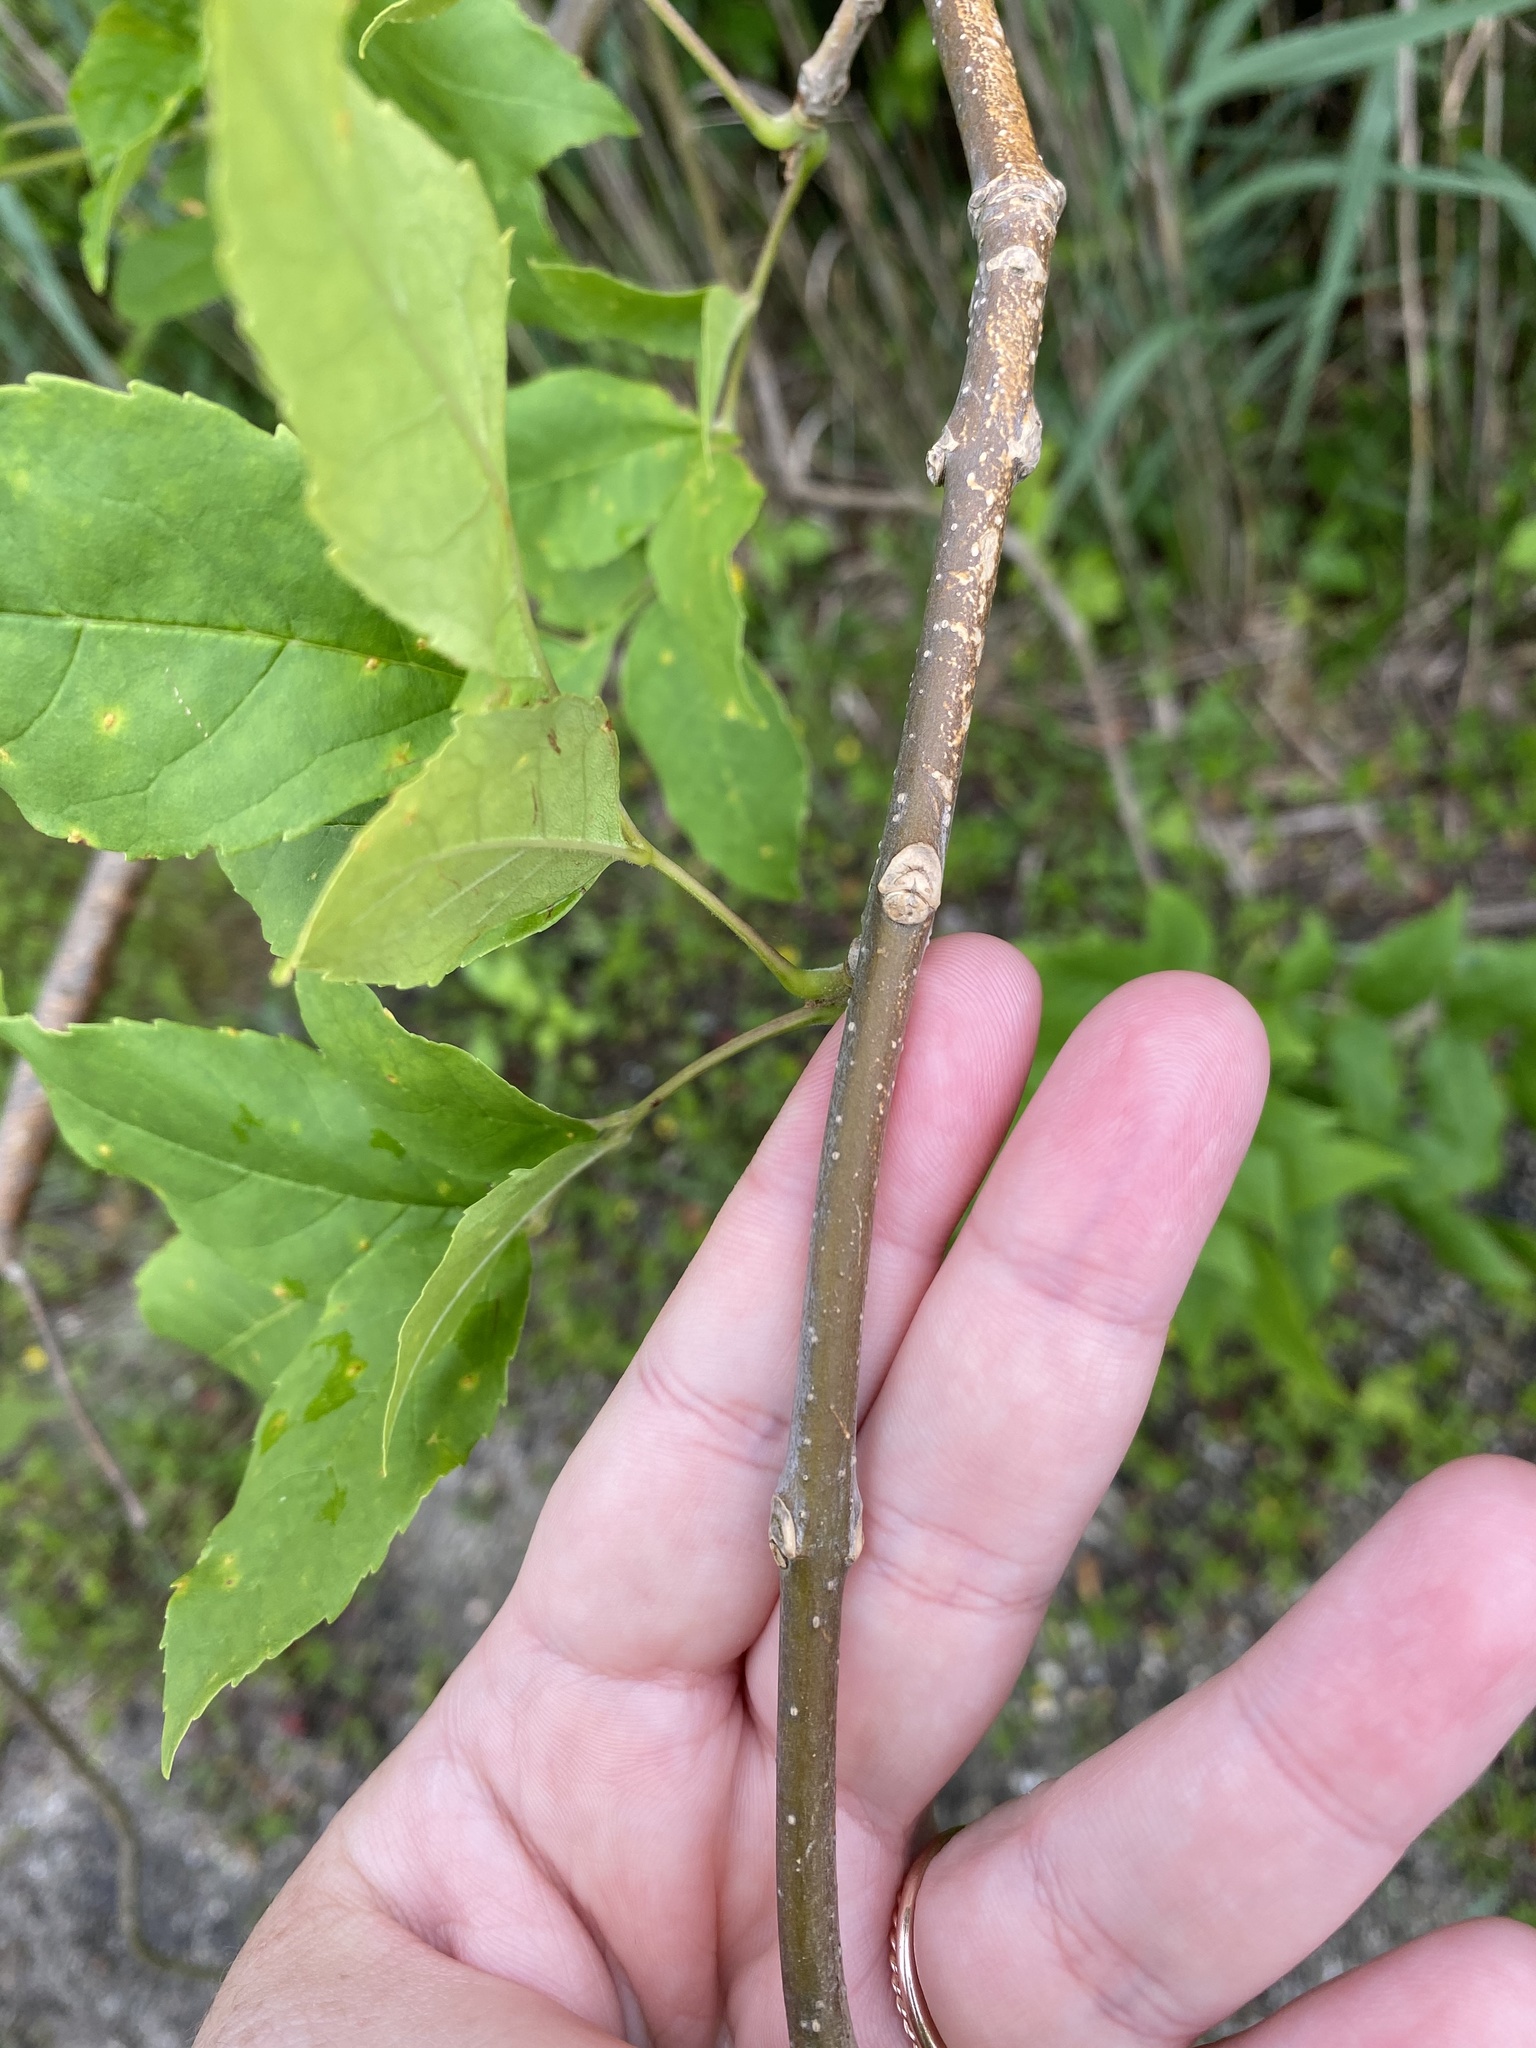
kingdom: Plantae
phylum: Tracheophyta
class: Magnoliopsida
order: Lamiales
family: Oleaceae
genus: Fraxinus
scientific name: Fraxinus pennsylvanica
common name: Green ash
